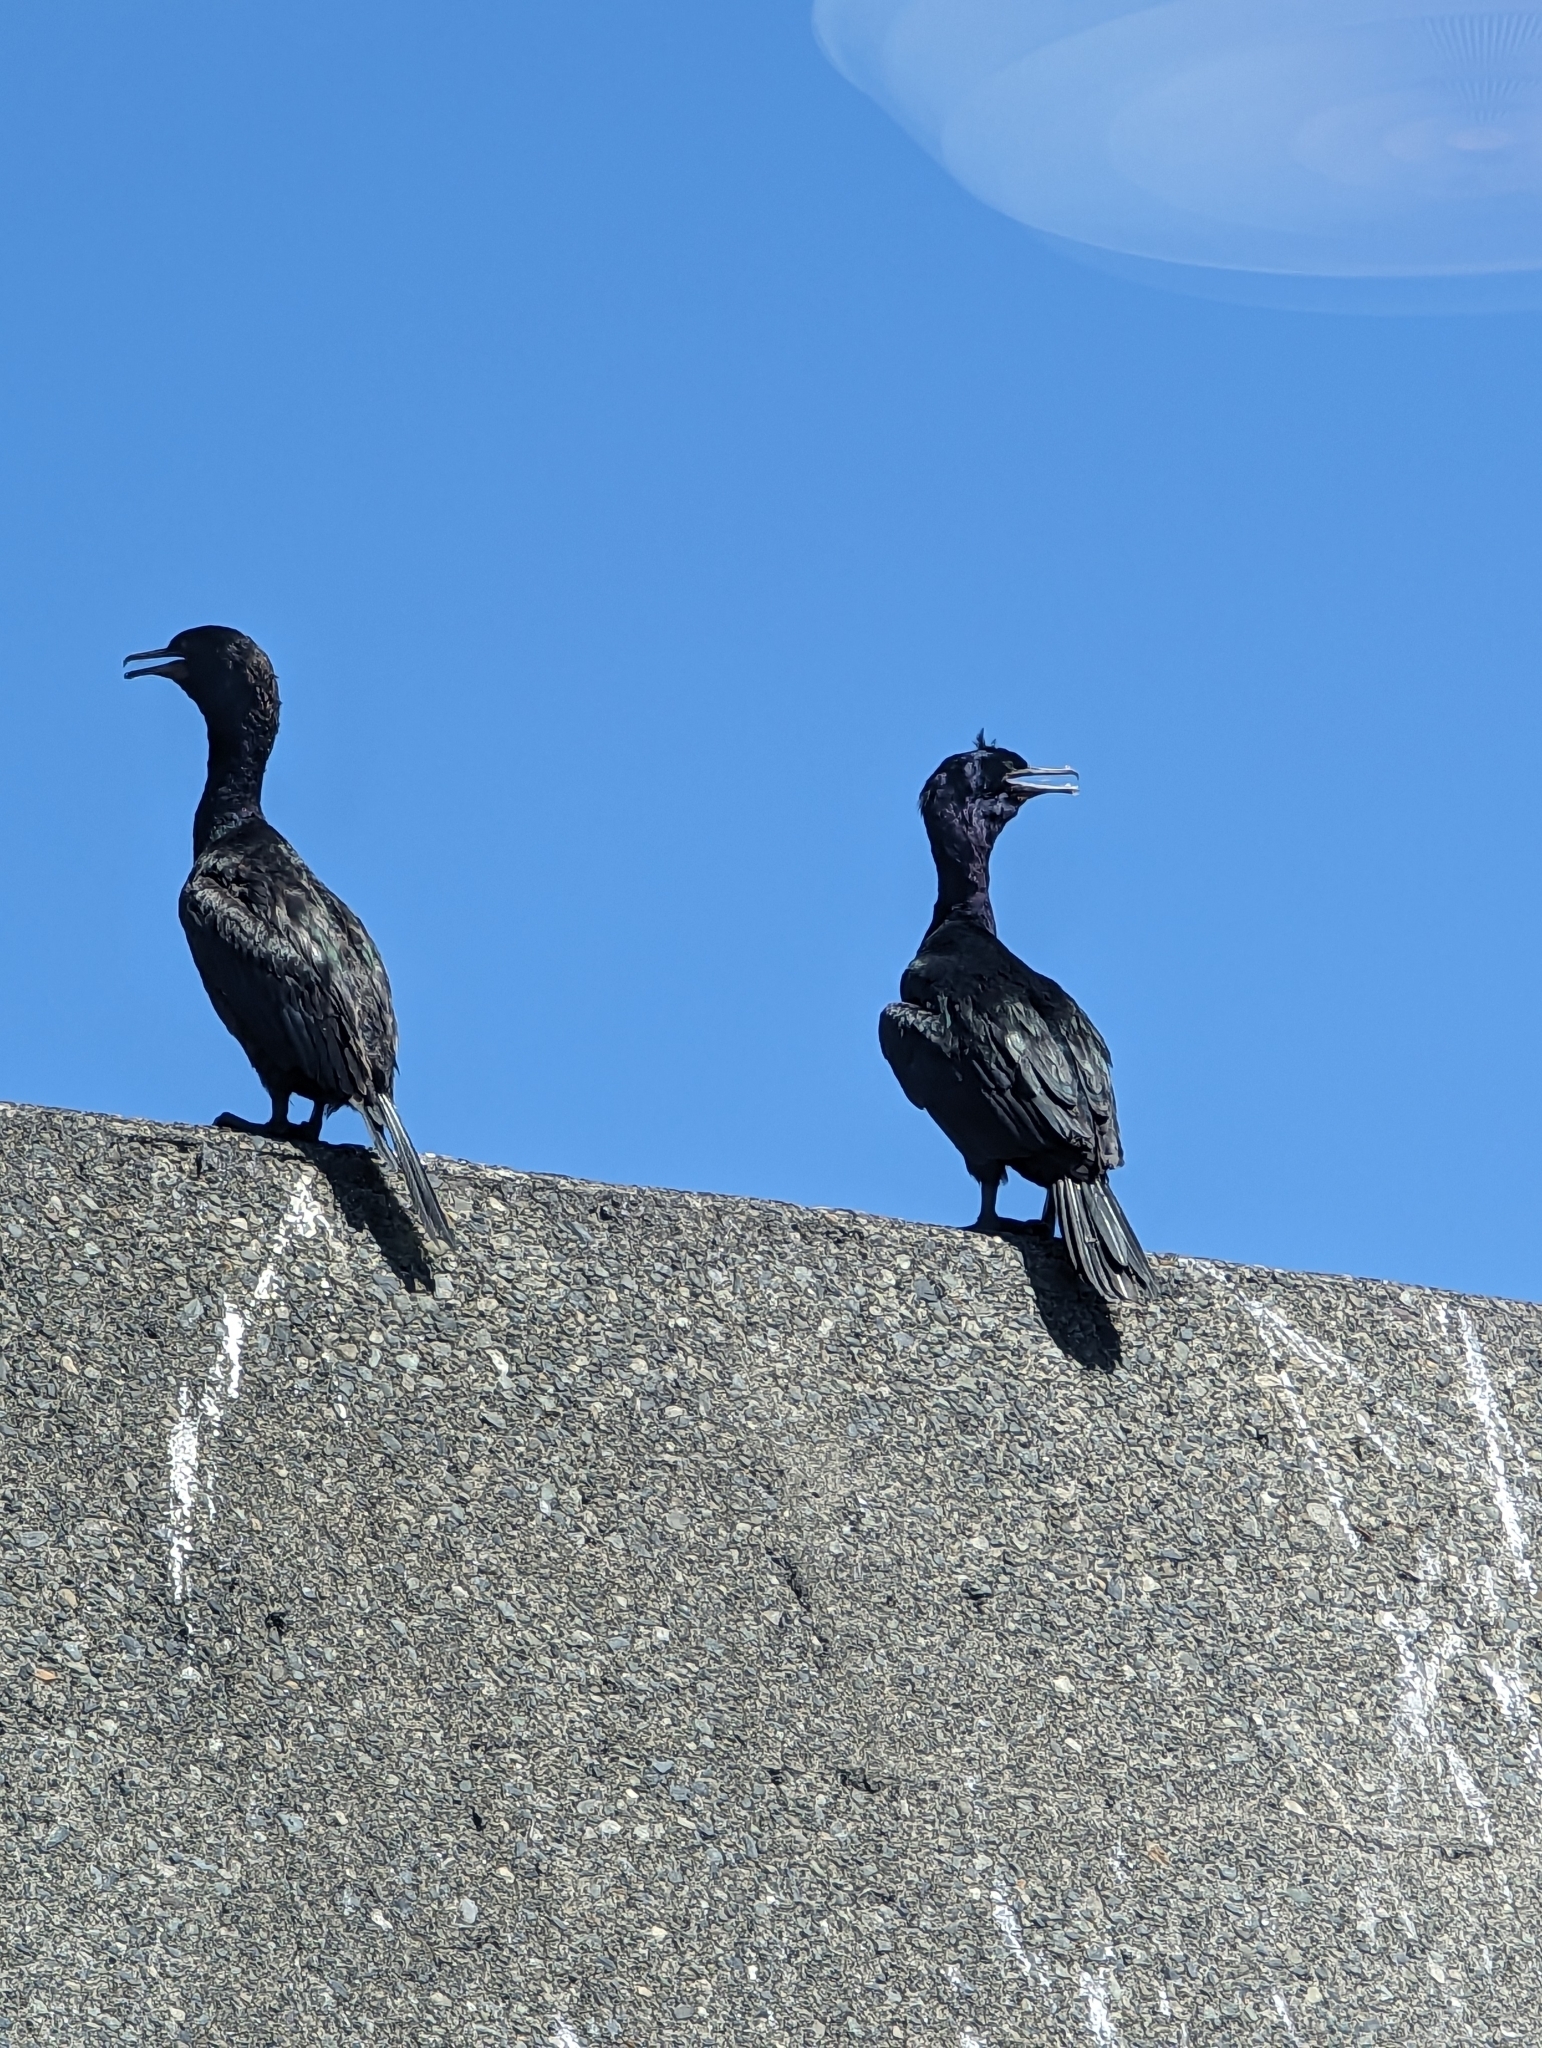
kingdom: Animalia
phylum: Chordata
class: Aves
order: Suliformes
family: Phalacrocoracidae
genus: Phalacrocorax
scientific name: Phalacrocorax pelagicus
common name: Pelagic cormorant
